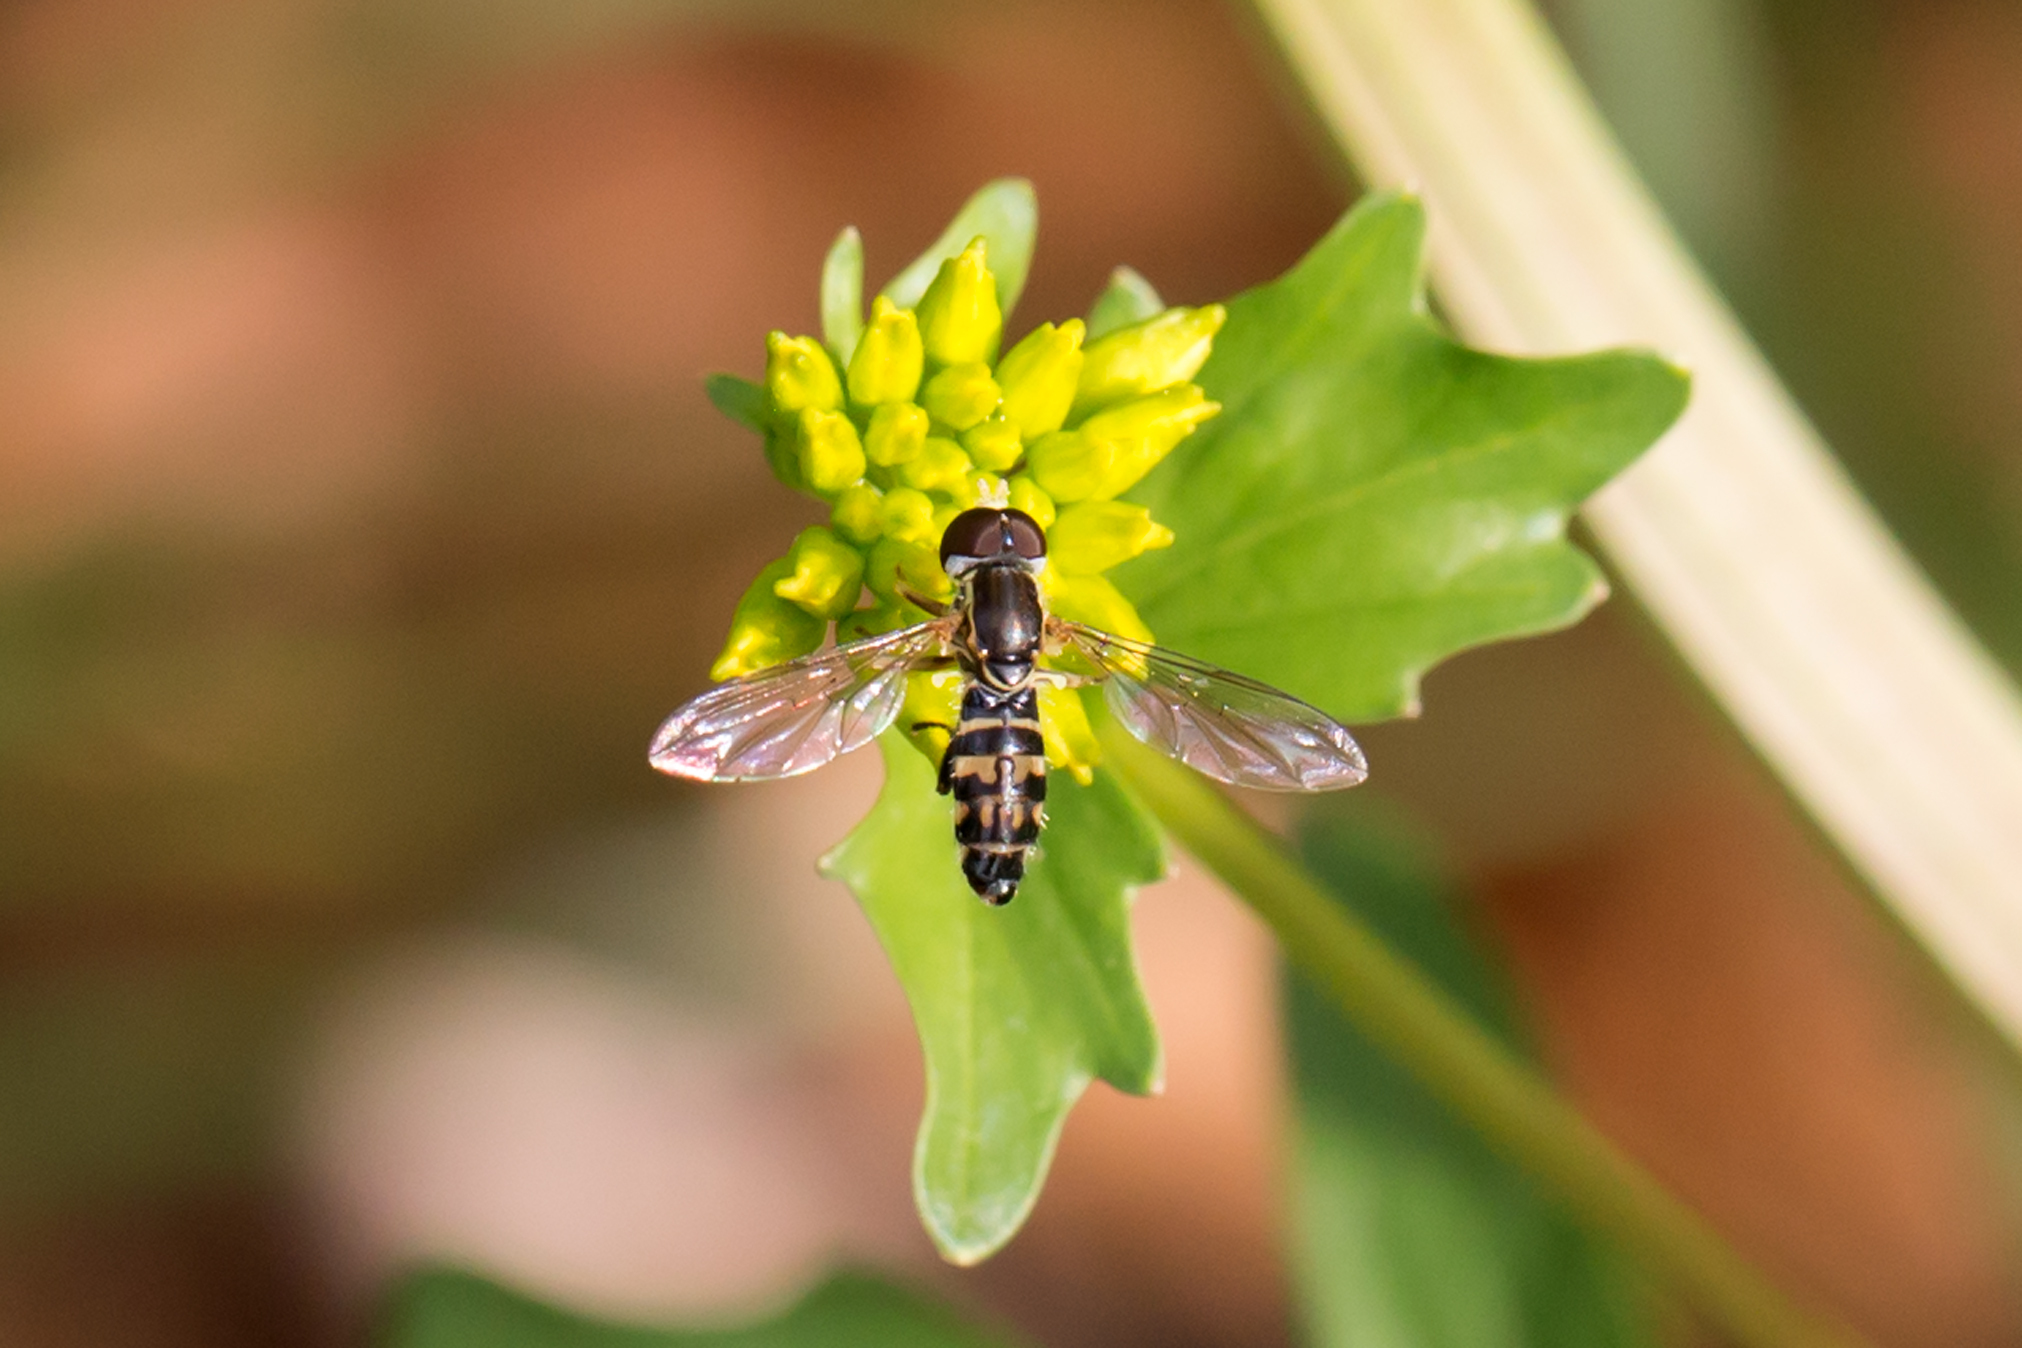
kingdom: Animalia
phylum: Arthropoda
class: Insecta
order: Diptera
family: Syrphidae
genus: Toxomerus
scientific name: Toxomerus geminatus
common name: Eastern calligrapher
